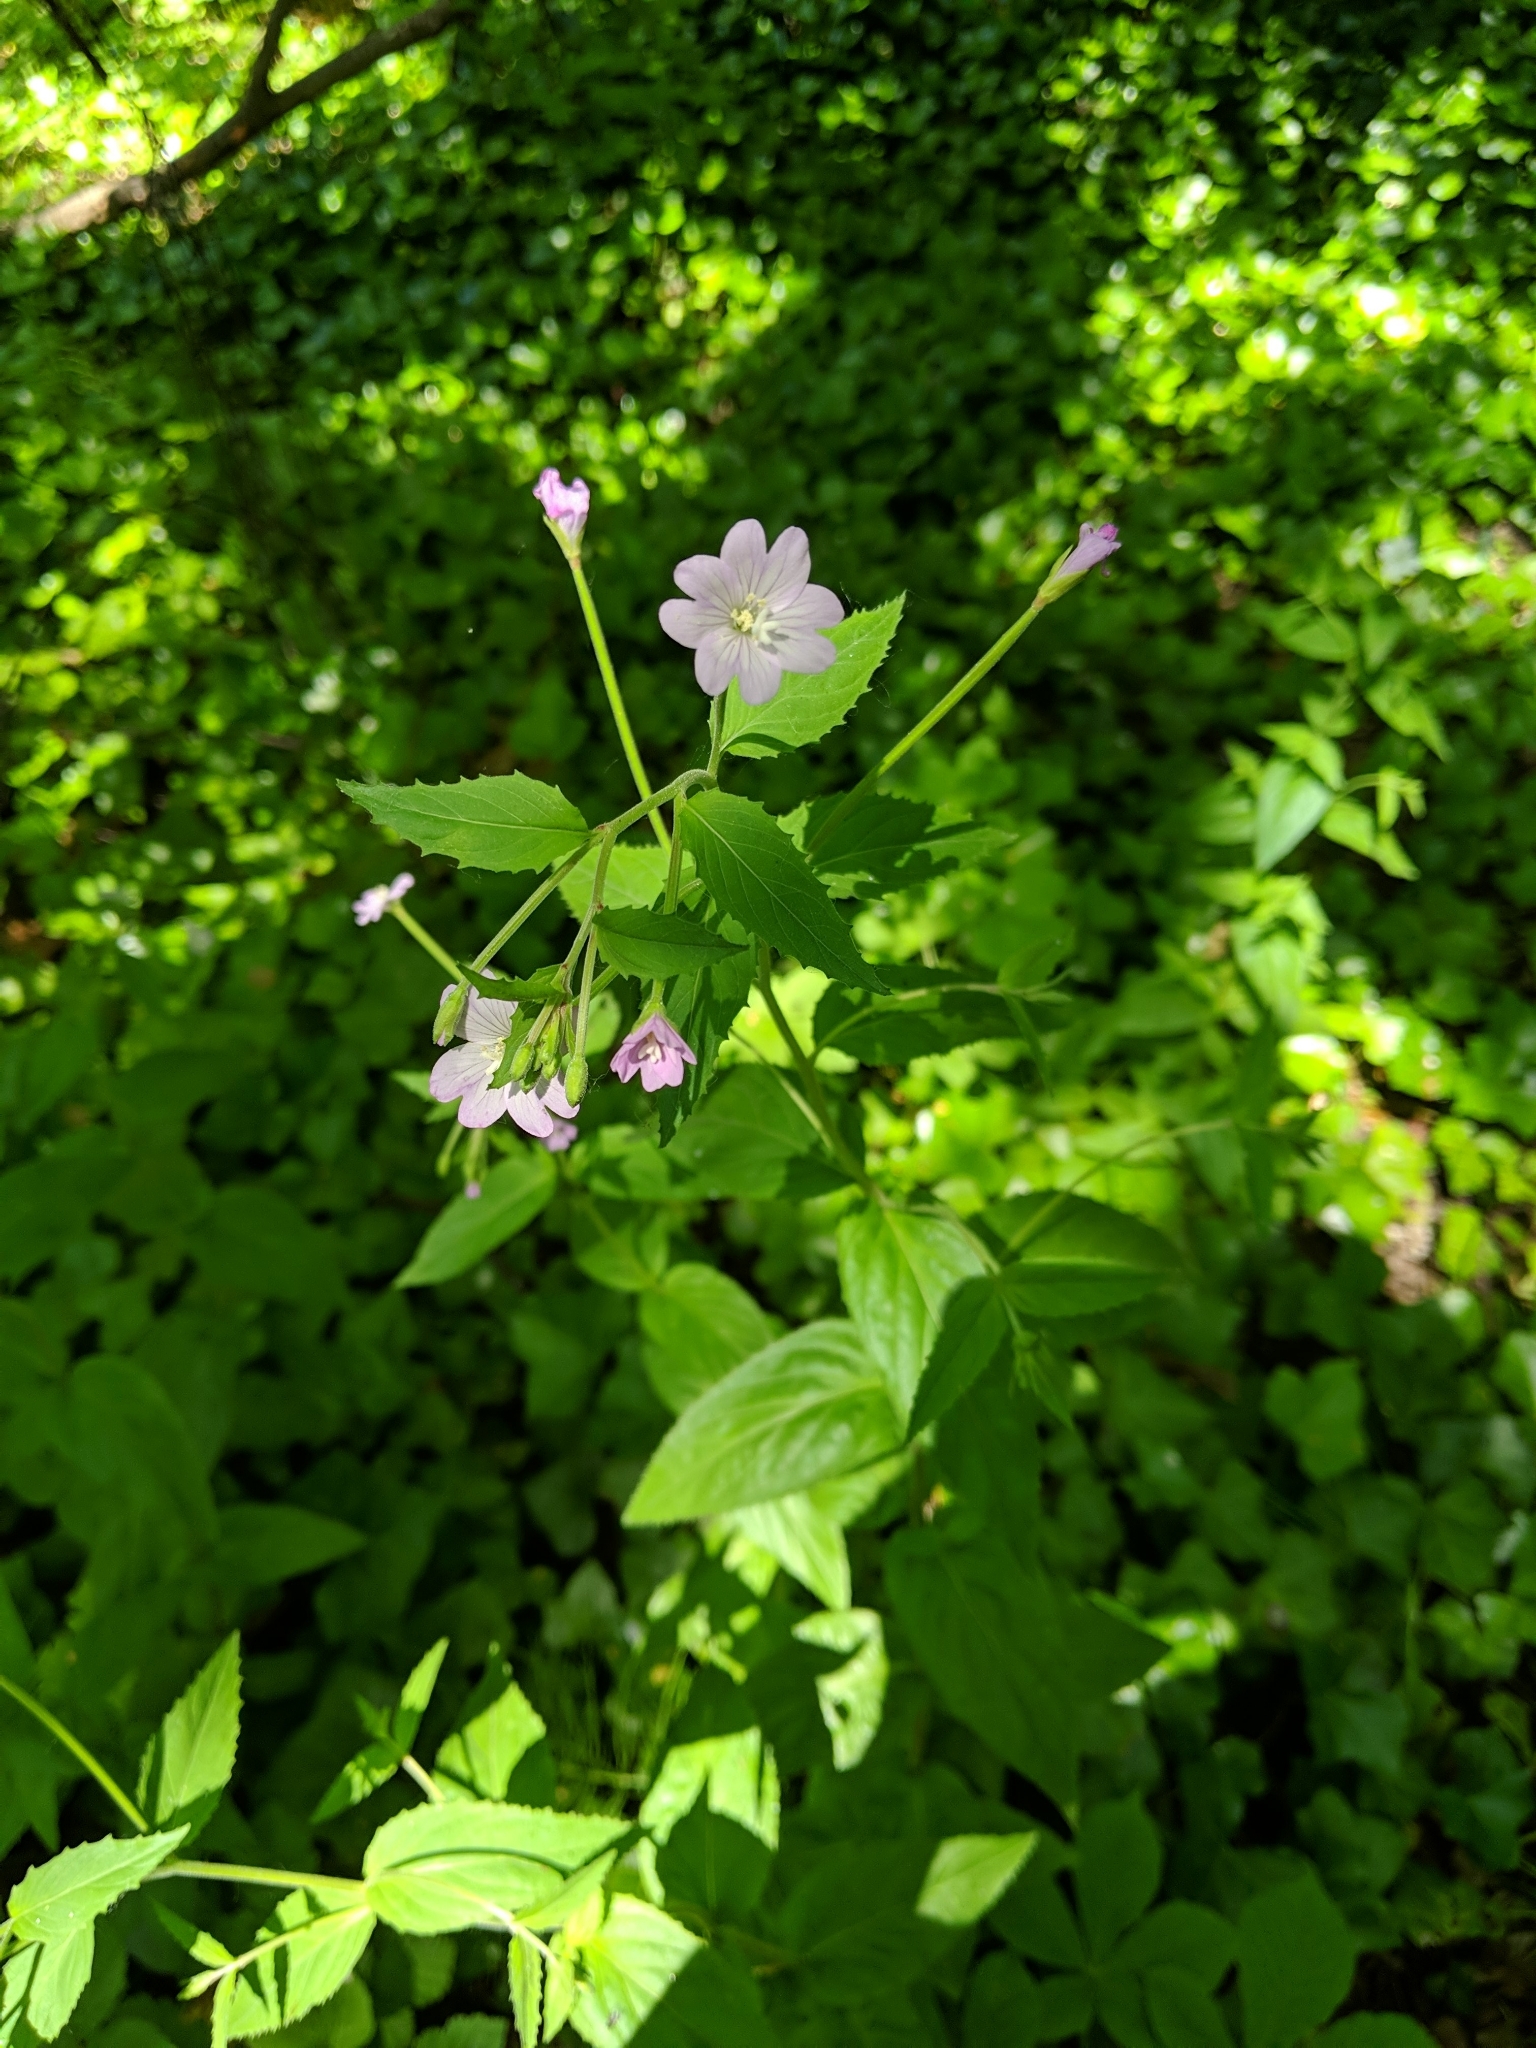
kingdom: Plantae
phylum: Tracheophyta
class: Magnoliopsida
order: Myrtales
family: Onagraceae
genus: Epilobium
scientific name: Epilobium montanum
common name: Broad-leaved willowherb
